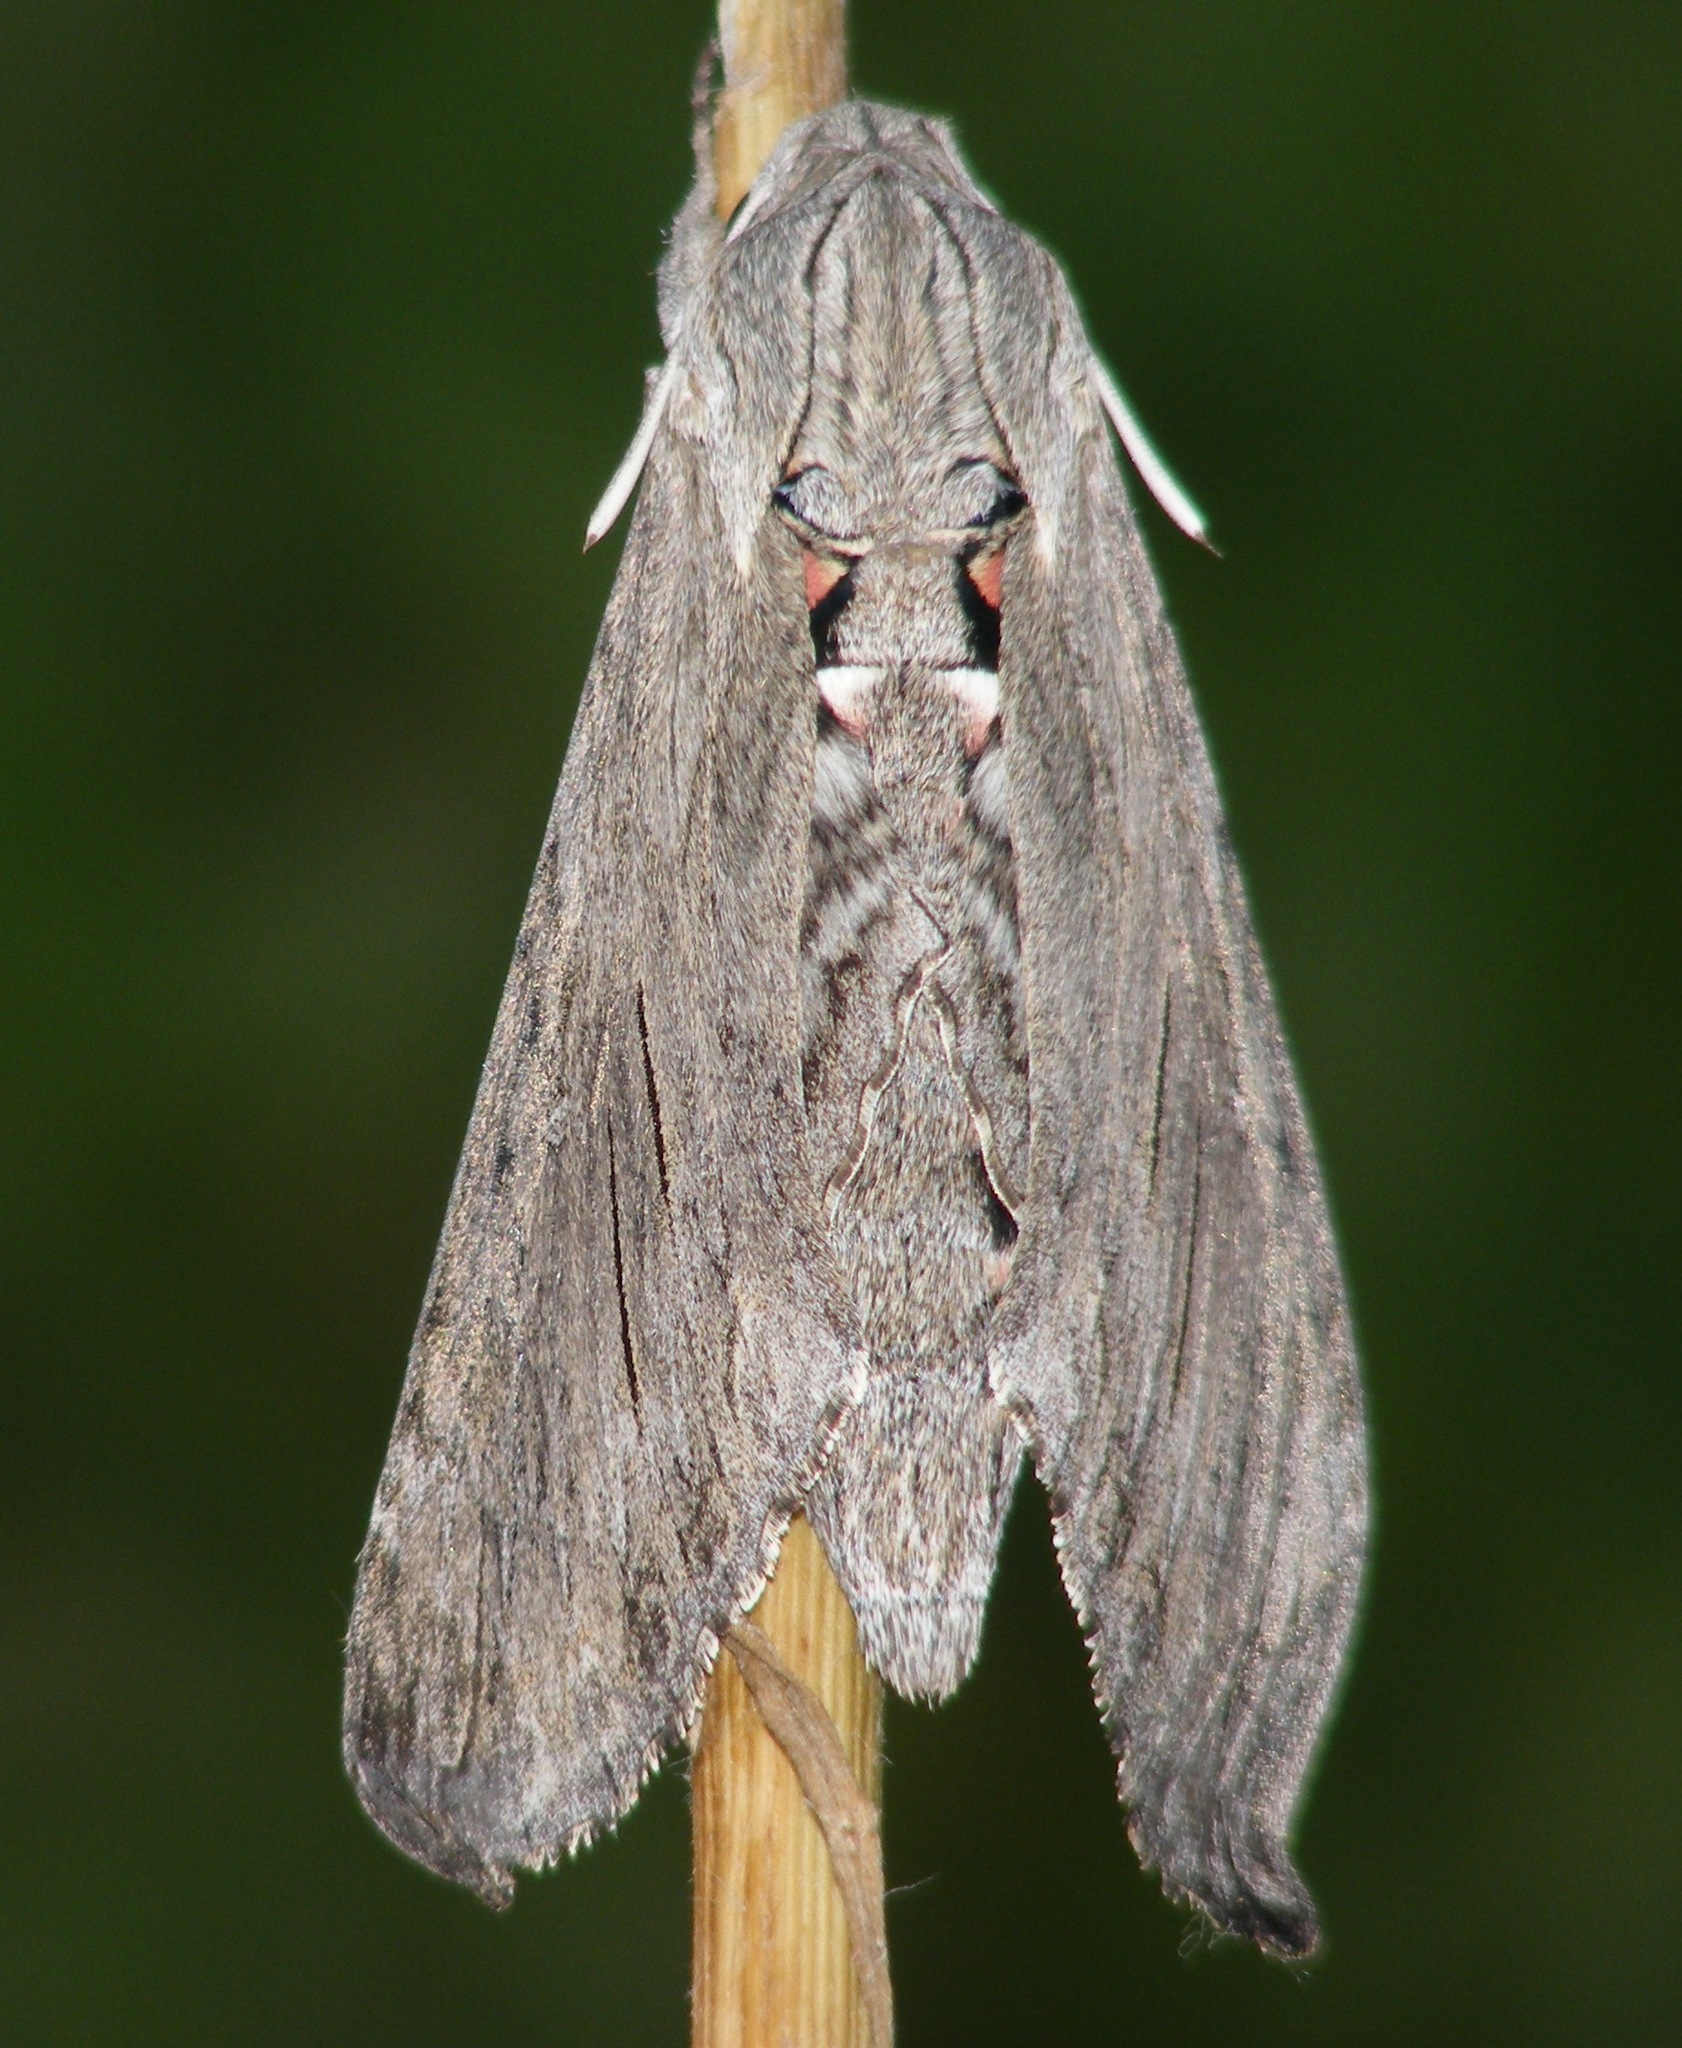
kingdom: Animalia
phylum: Arthropoda
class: Insecta
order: Lepidoptera
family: Sphingidae
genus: Agrius
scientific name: Agrius convolvuli
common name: Convolvulus hawkmoth
